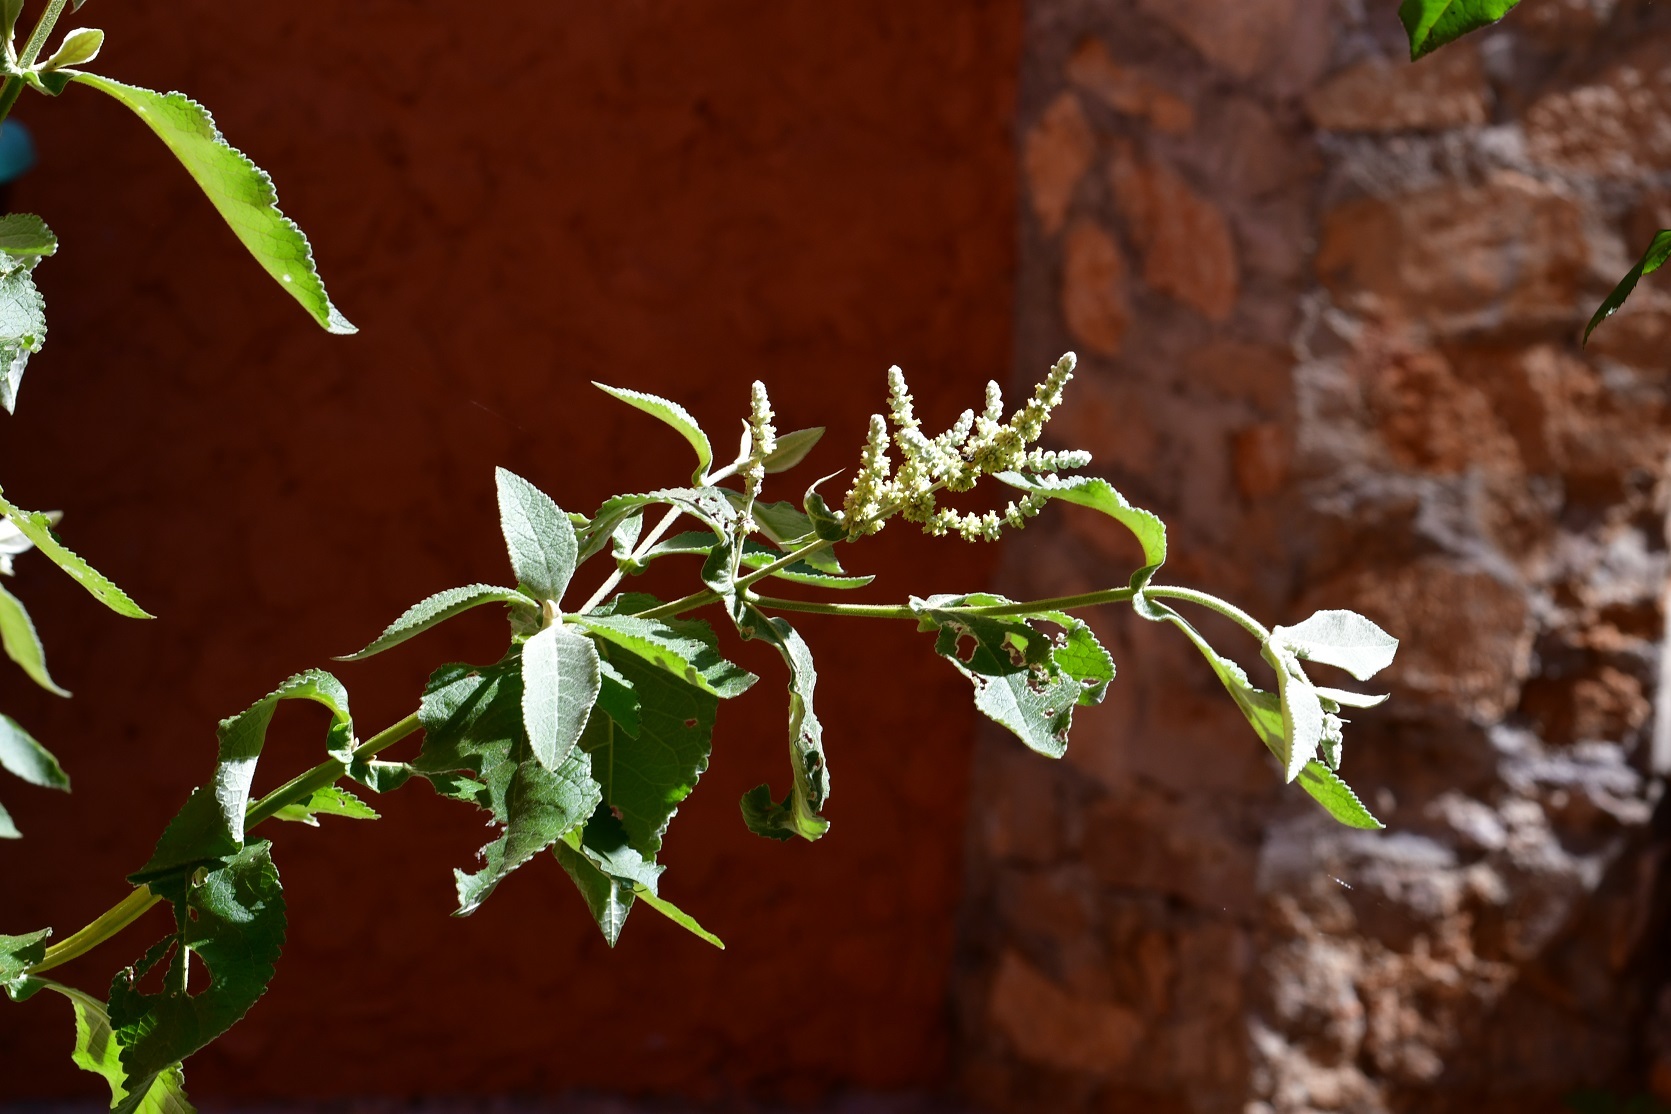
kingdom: Plantae
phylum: Tracheophyta
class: Magnoliopsida
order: Lamiales
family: Scrophulariaceae
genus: Buddleja
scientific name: Buddleja crotonoides
